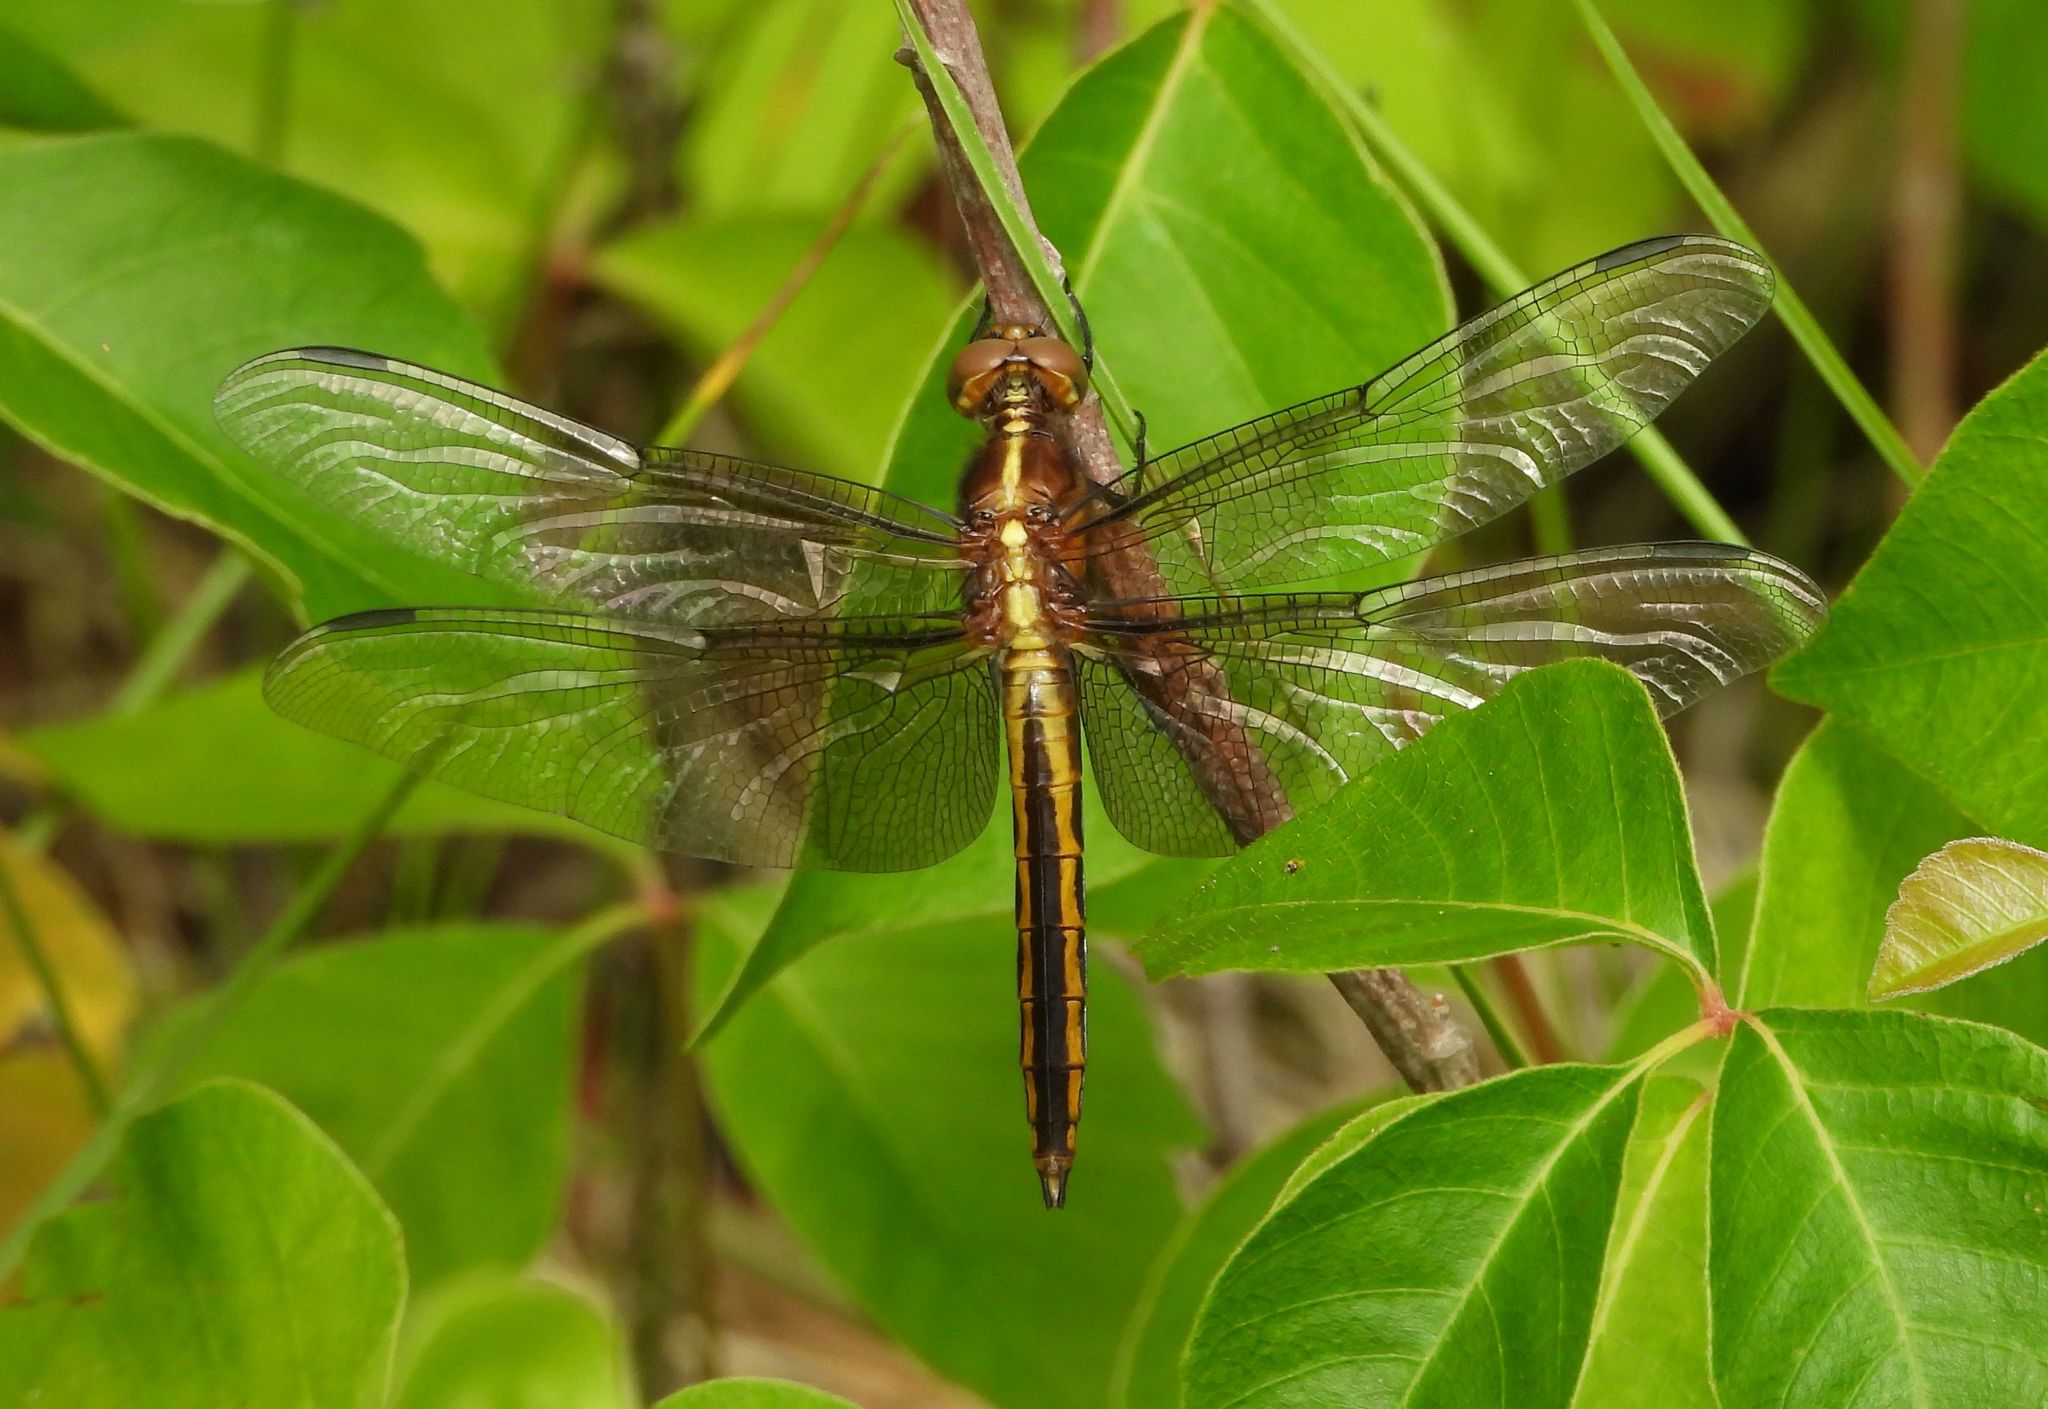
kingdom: Animalia
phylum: Arthropoda
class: Insecta
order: Odonata
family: Libellulidae
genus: Libellula
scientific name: Libellula luctuosa
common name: Widow skimmer
